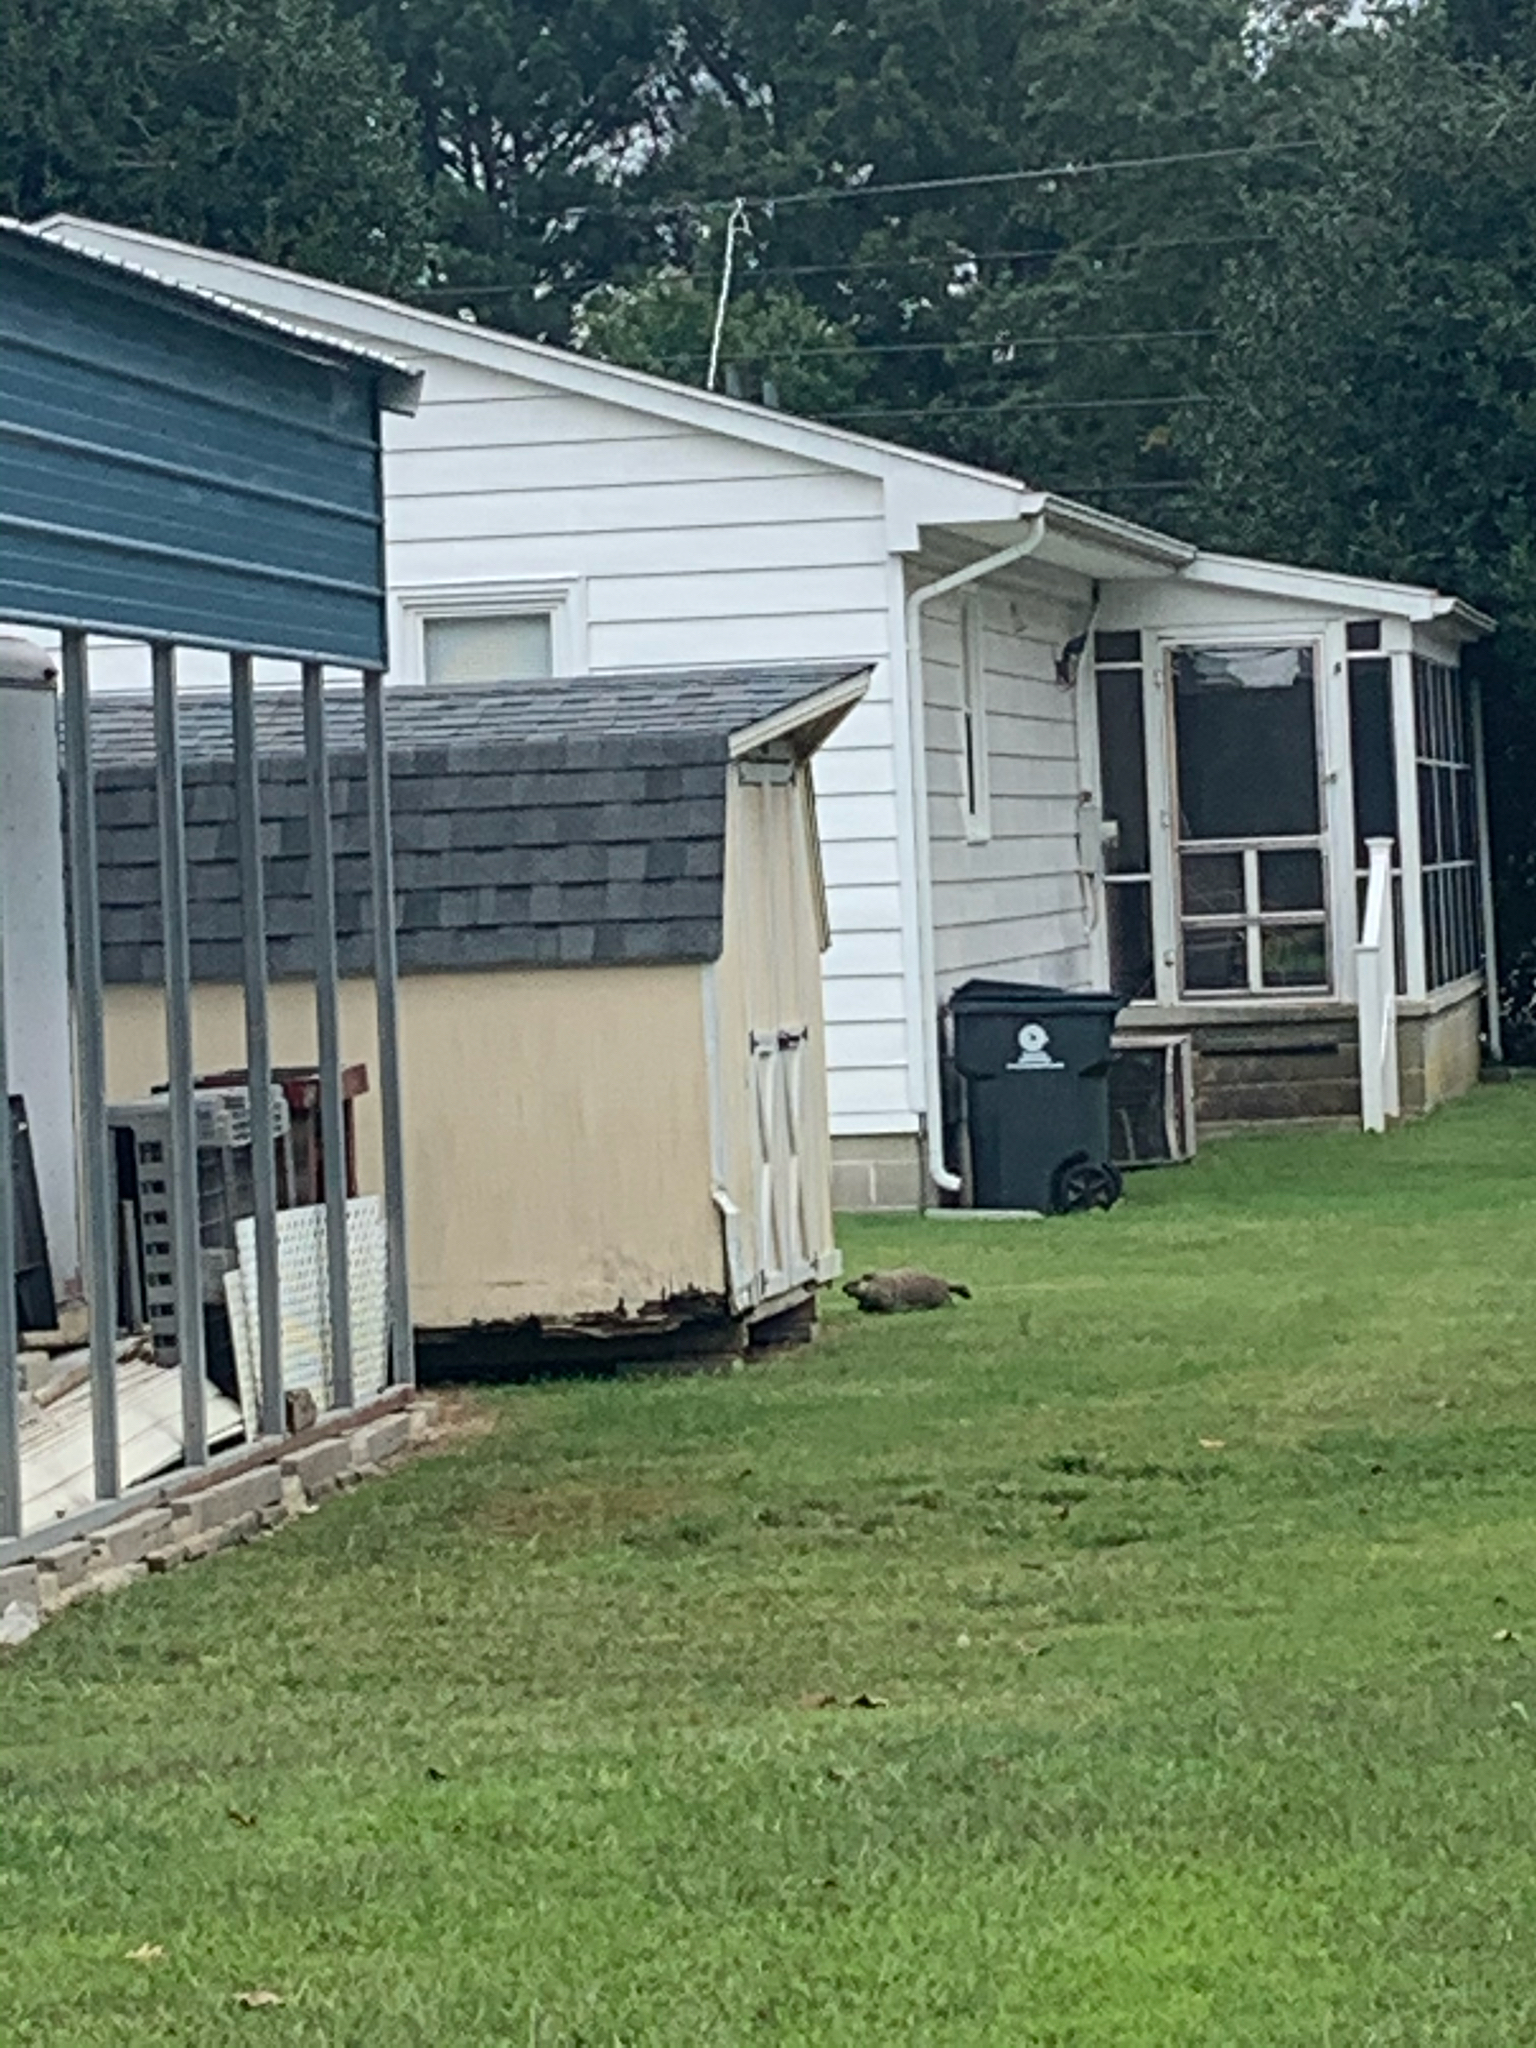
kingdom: Animalia
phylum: Chordata
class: Mammalia
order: Rodentia
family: Sciuridae
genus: Marmota
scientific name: Marmota monax
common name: Groundhog
